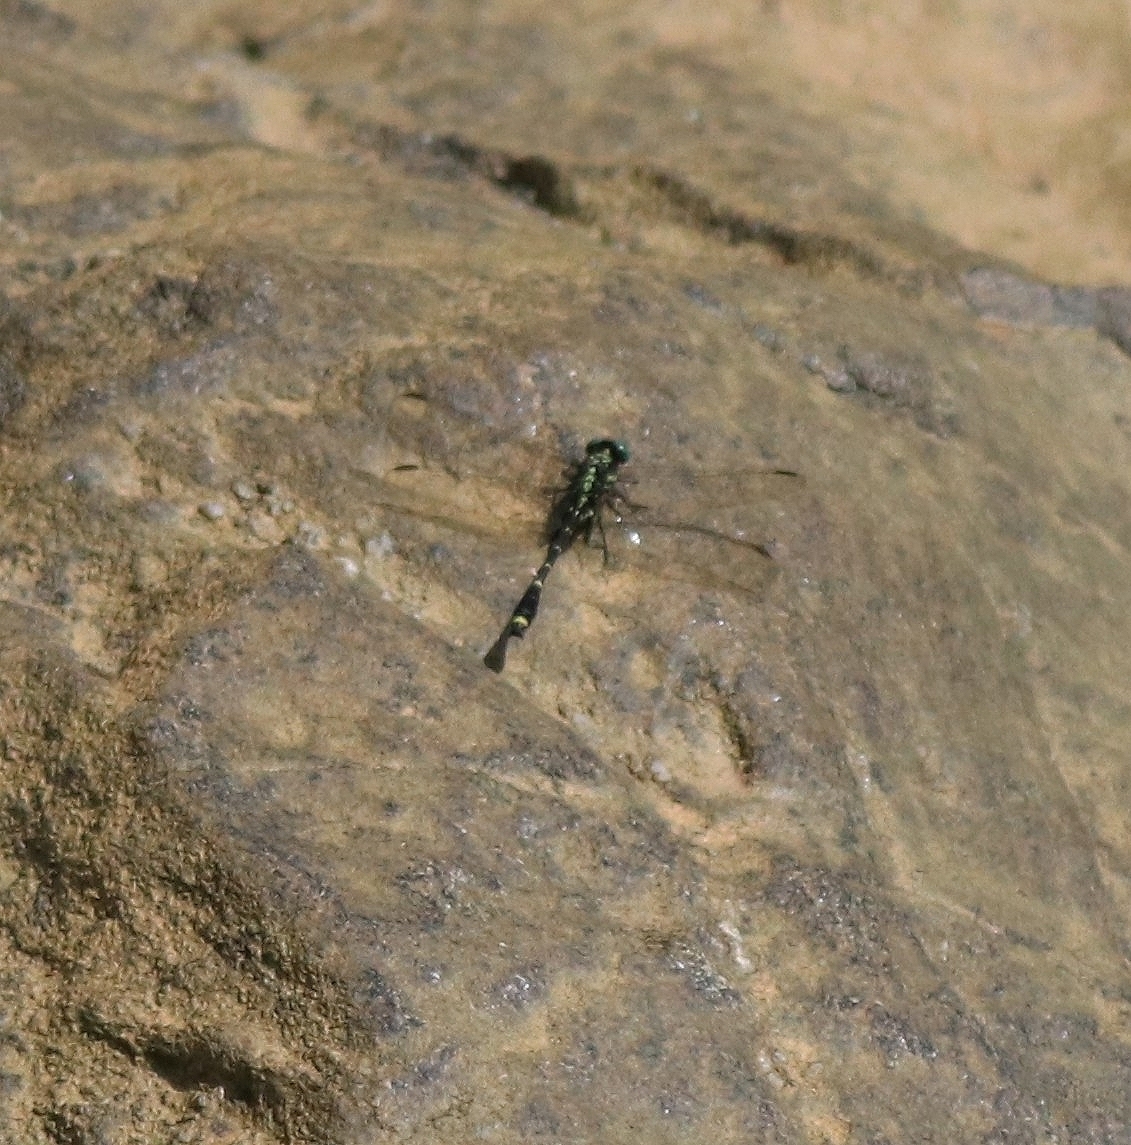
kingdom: Animalia
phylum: Arthropoda
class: Insecta
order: Odonata
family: Gomphidae
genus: Burmagomphus
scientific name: Burmagomphus laidlawi
